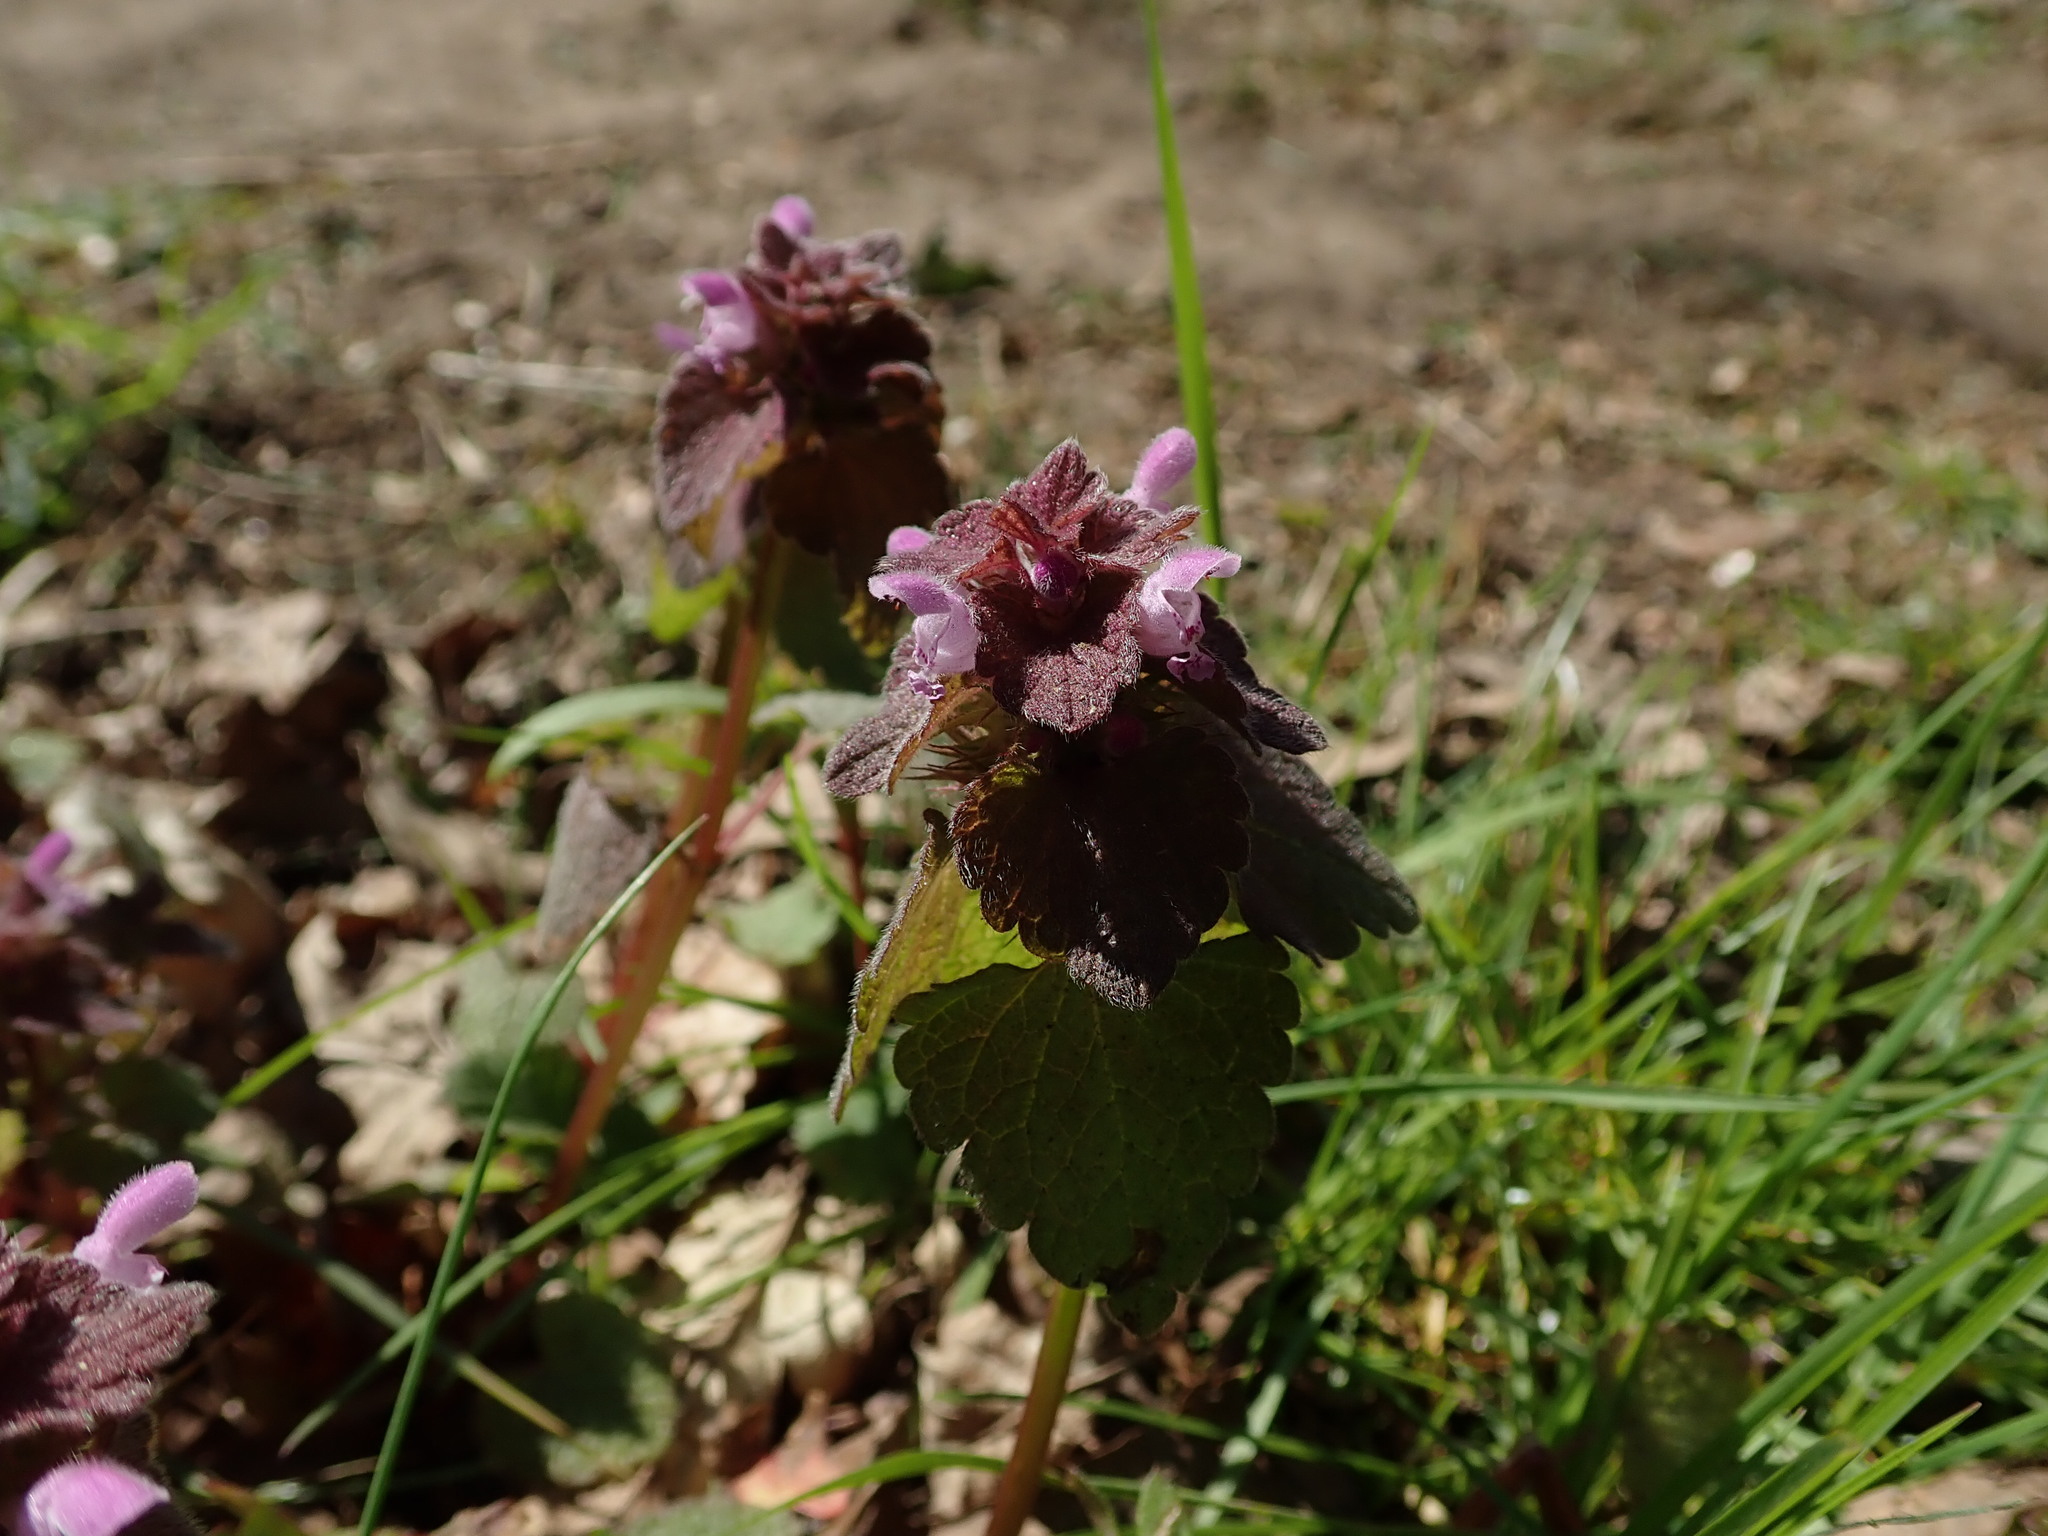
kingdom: Plantae
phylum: Tracheophyta
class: Magnoliopsida
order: Lamiales
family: Lamiaceae
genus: Lamium
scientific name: Lamium purpureum
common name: Red dead-nettle
